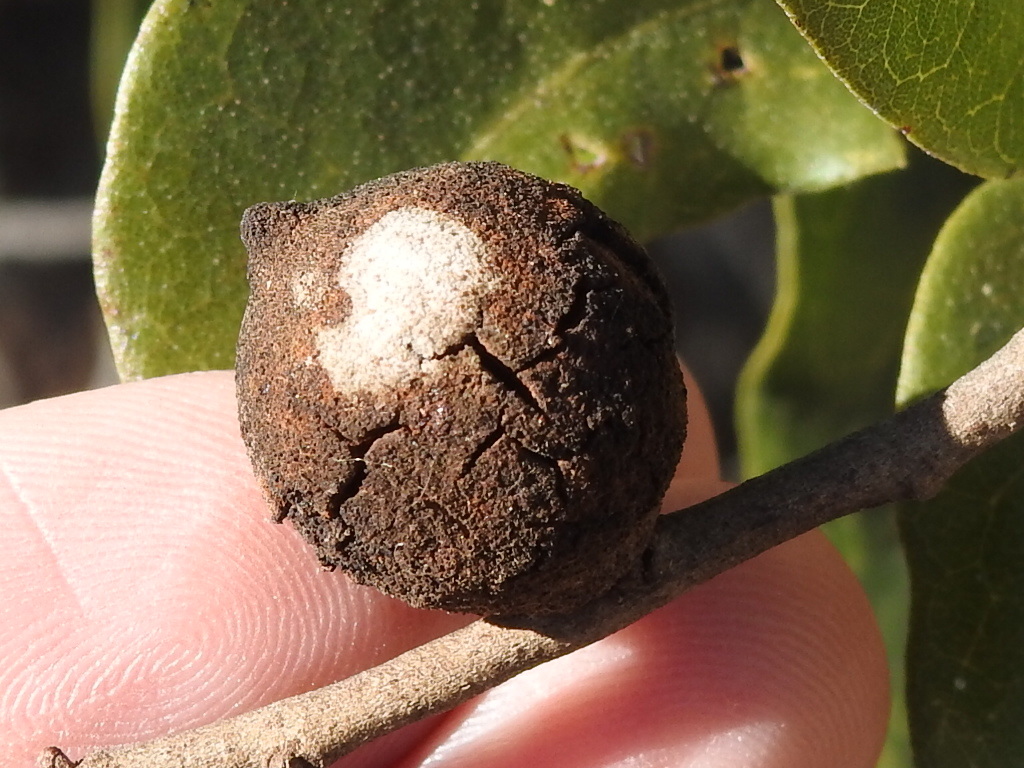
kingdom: Animalia
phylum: Arthropoda
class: Insecta
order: Hymenoptera
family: Cynipidae
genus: Disholcaspis
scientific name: Disholcaspis
